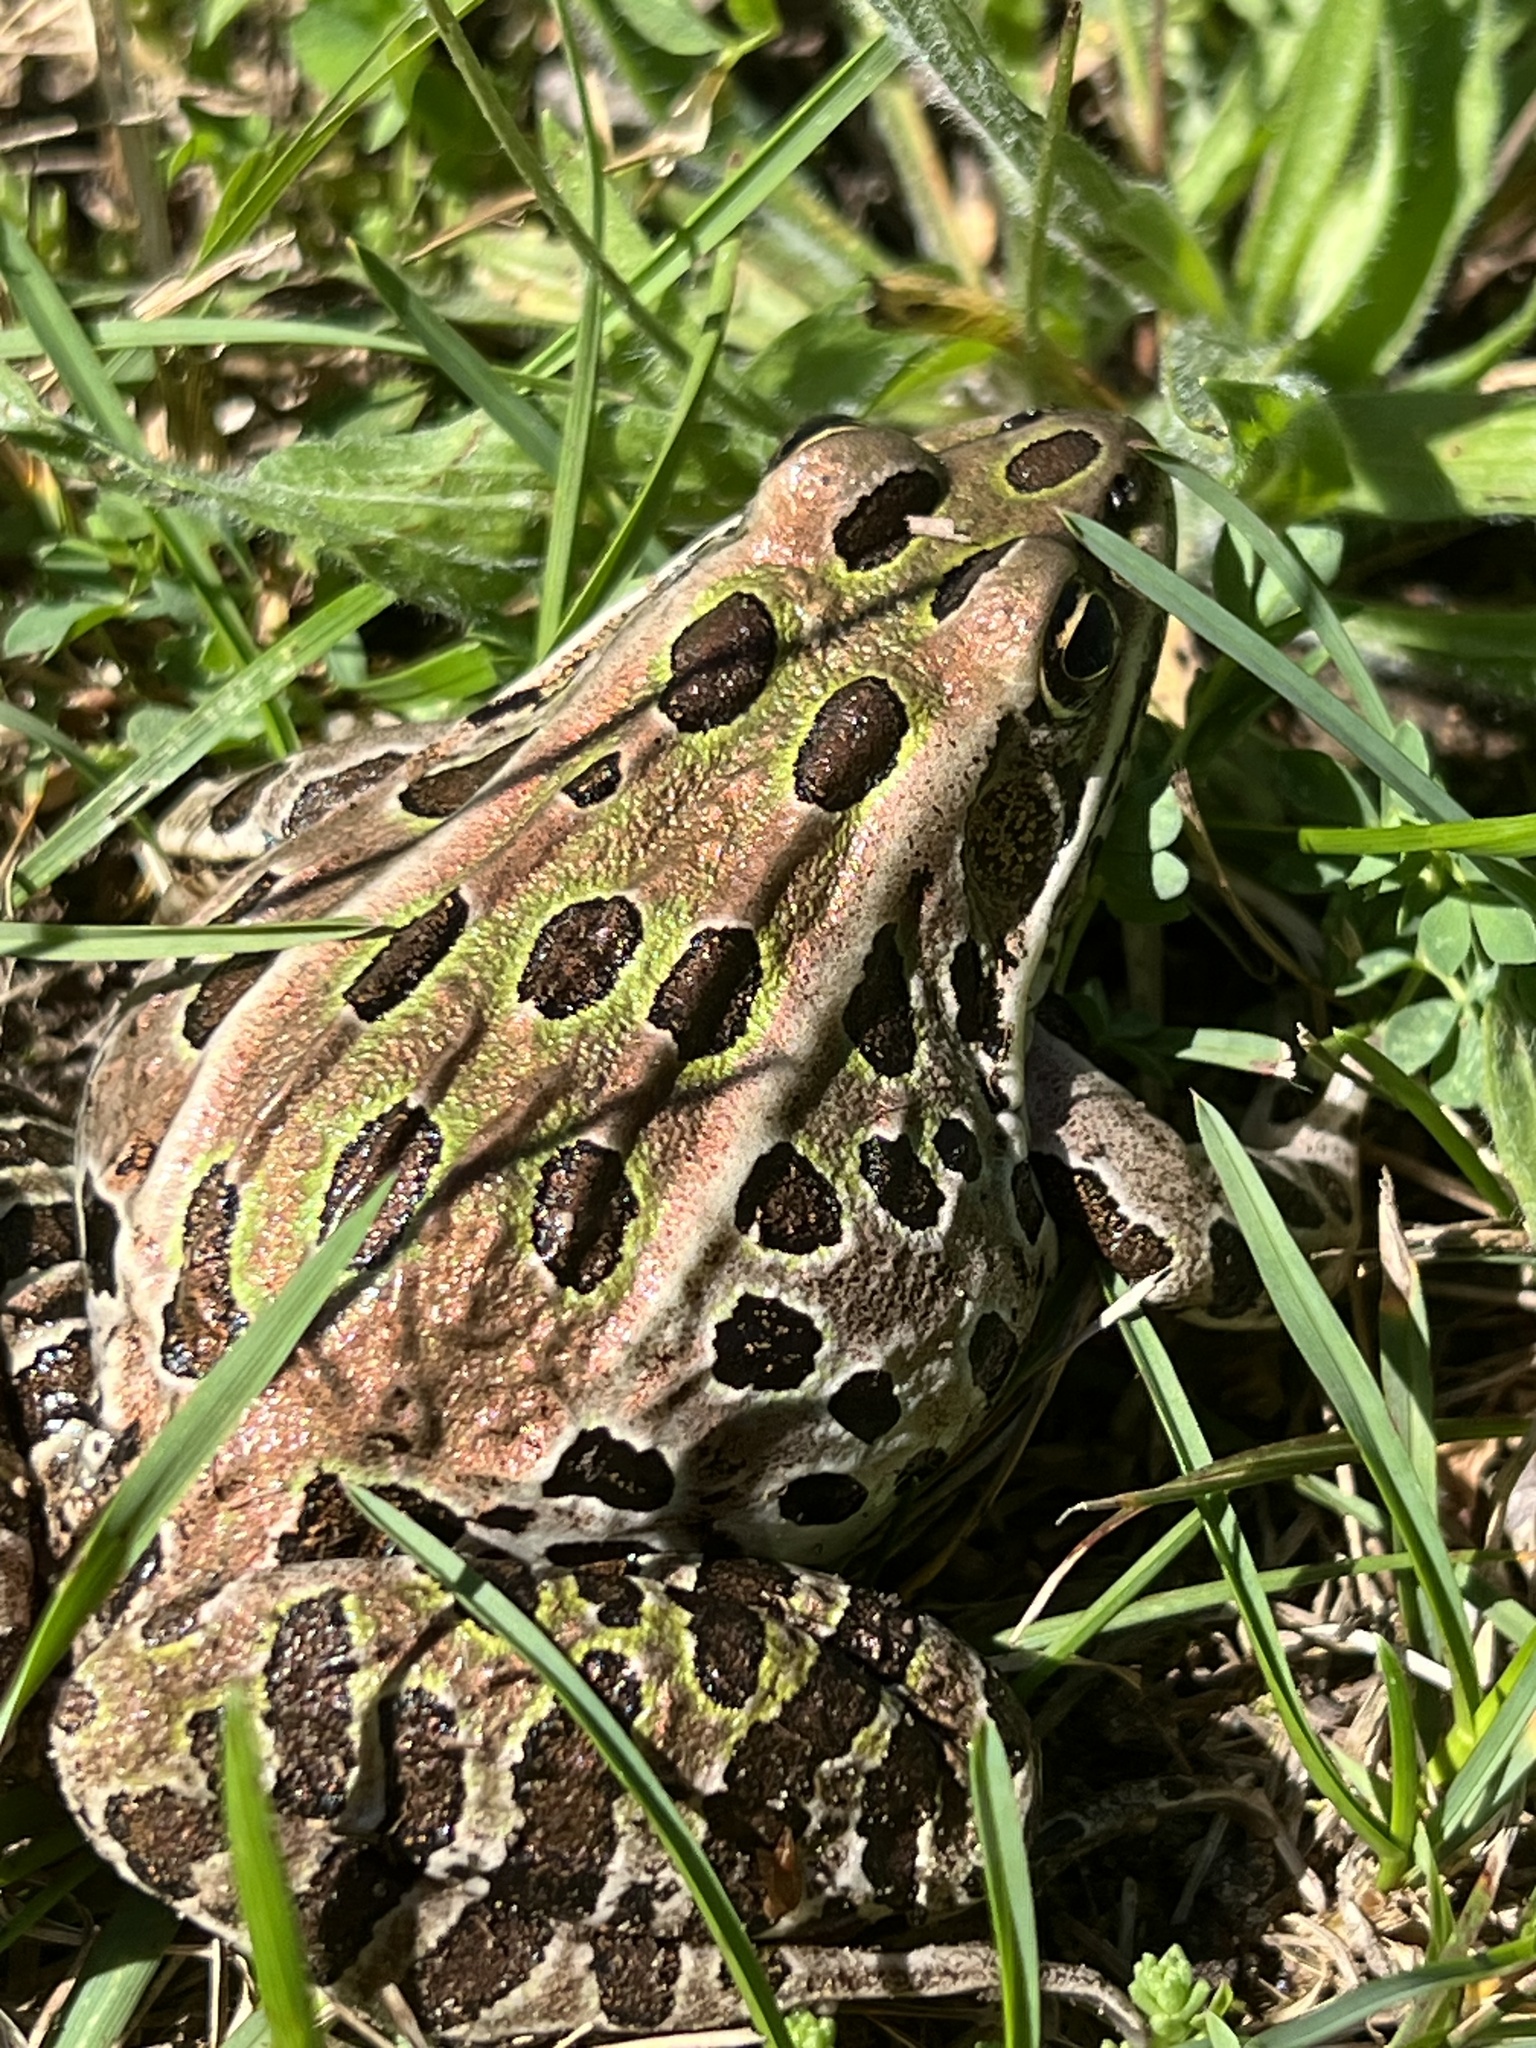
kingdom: Animalia
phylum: Chordata
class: Amphibia
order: Anura
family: Ranidae
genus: Lithobates
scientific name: Lithobates pipiens
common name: Northern leopard frog
